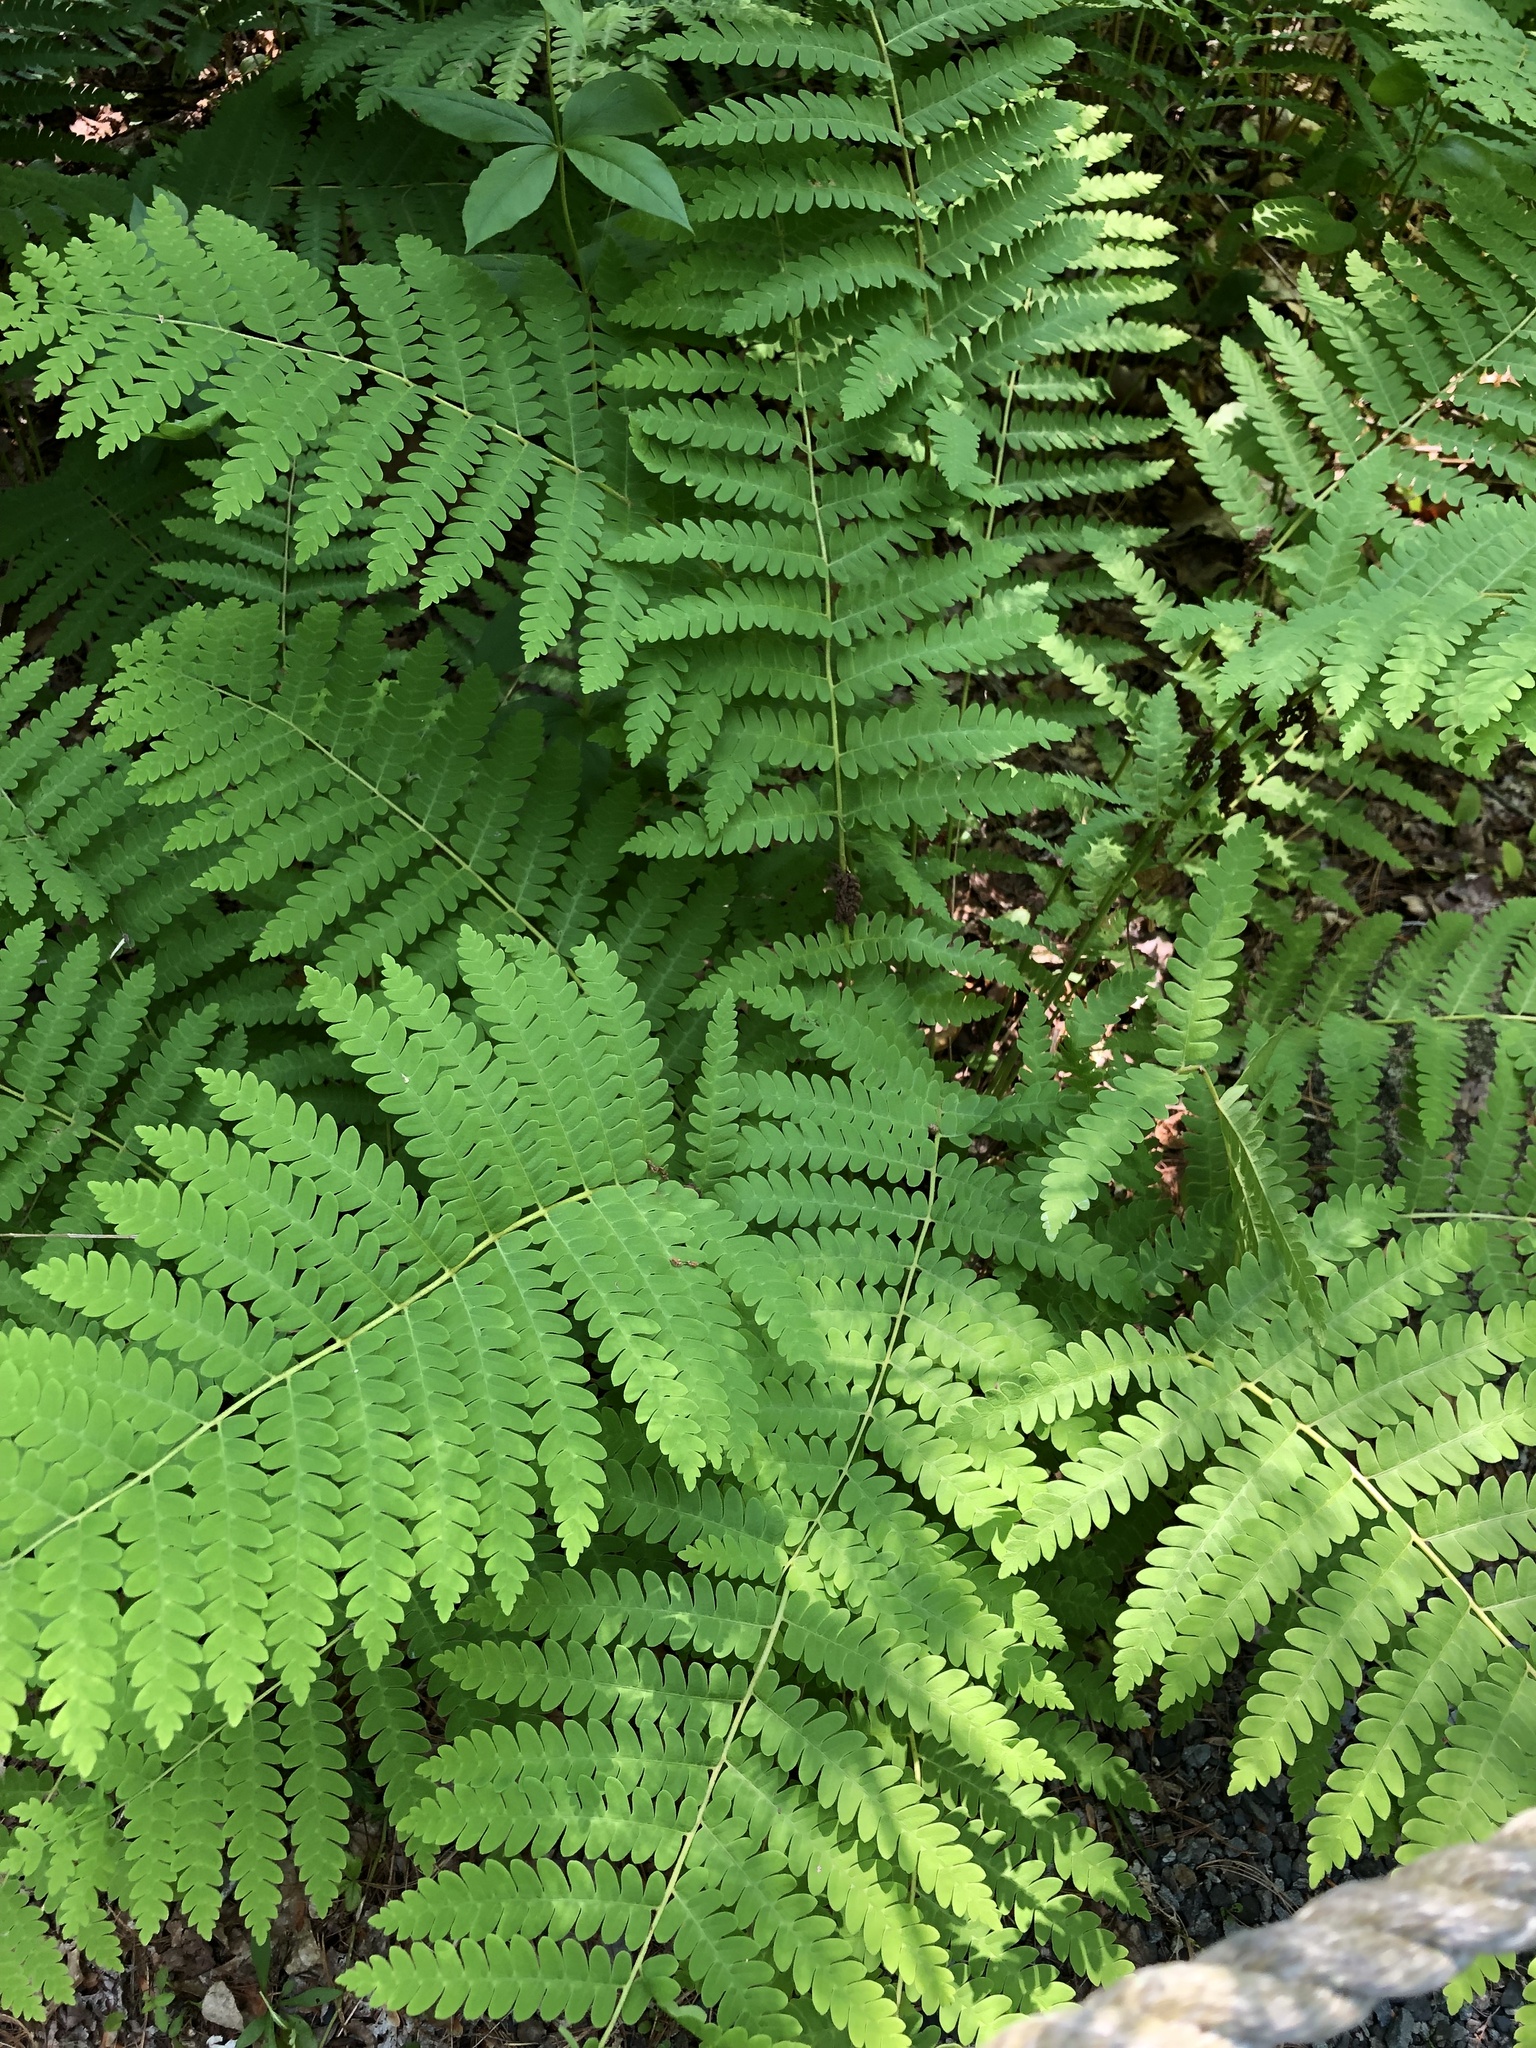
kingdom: Plantae
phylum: Tracheophyta
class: Polypodiopsida
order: Osmundales
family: Osmundaceae
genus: Claytosmunda
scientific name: Claytosmunda claytoniana
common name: Clayton's fern
